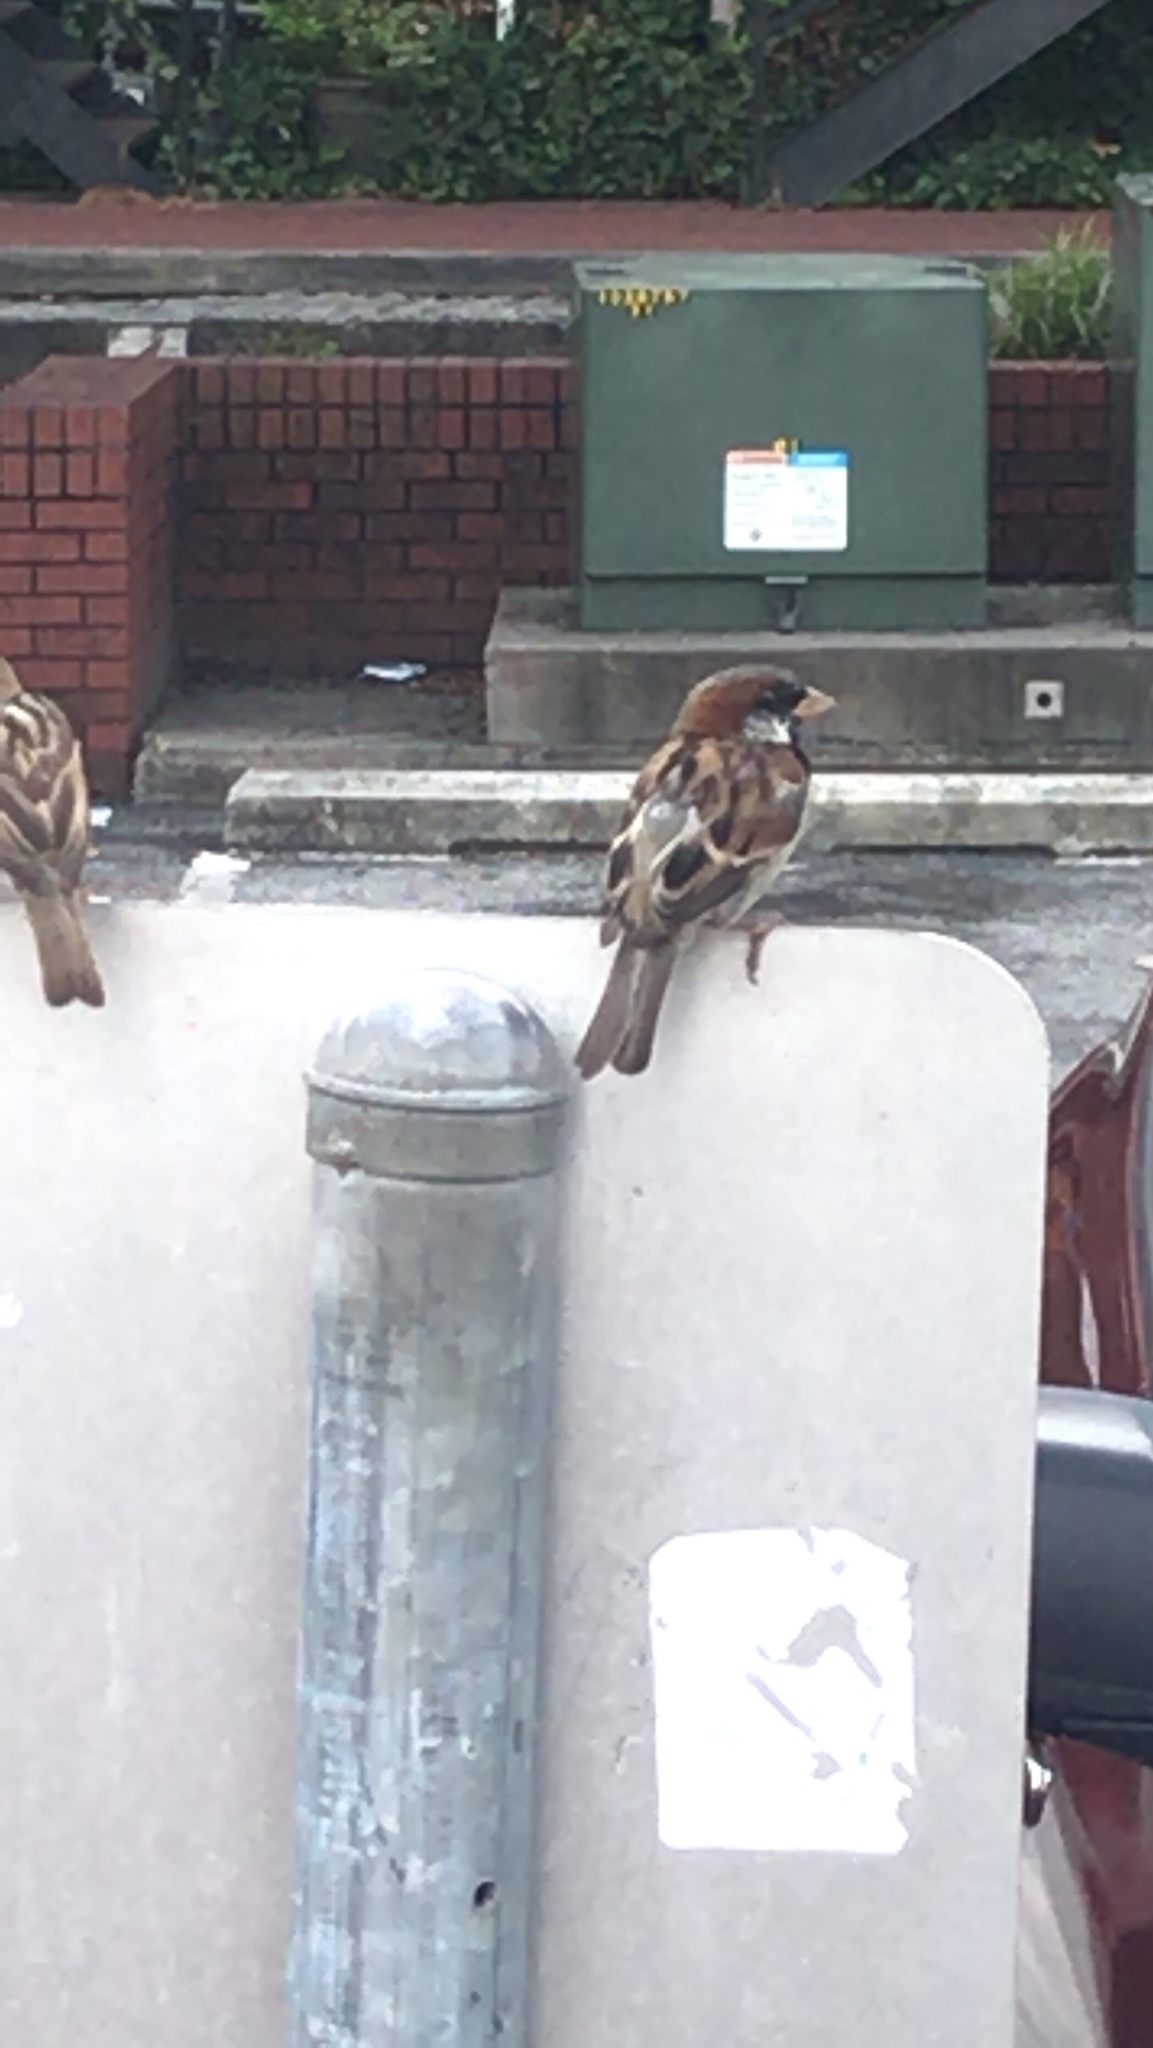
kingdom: Animalia
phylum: Chordata
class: Aves
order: Passeriformes
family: Passeridae
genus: Passer
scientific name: Passer domesticus
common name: House sparrow
